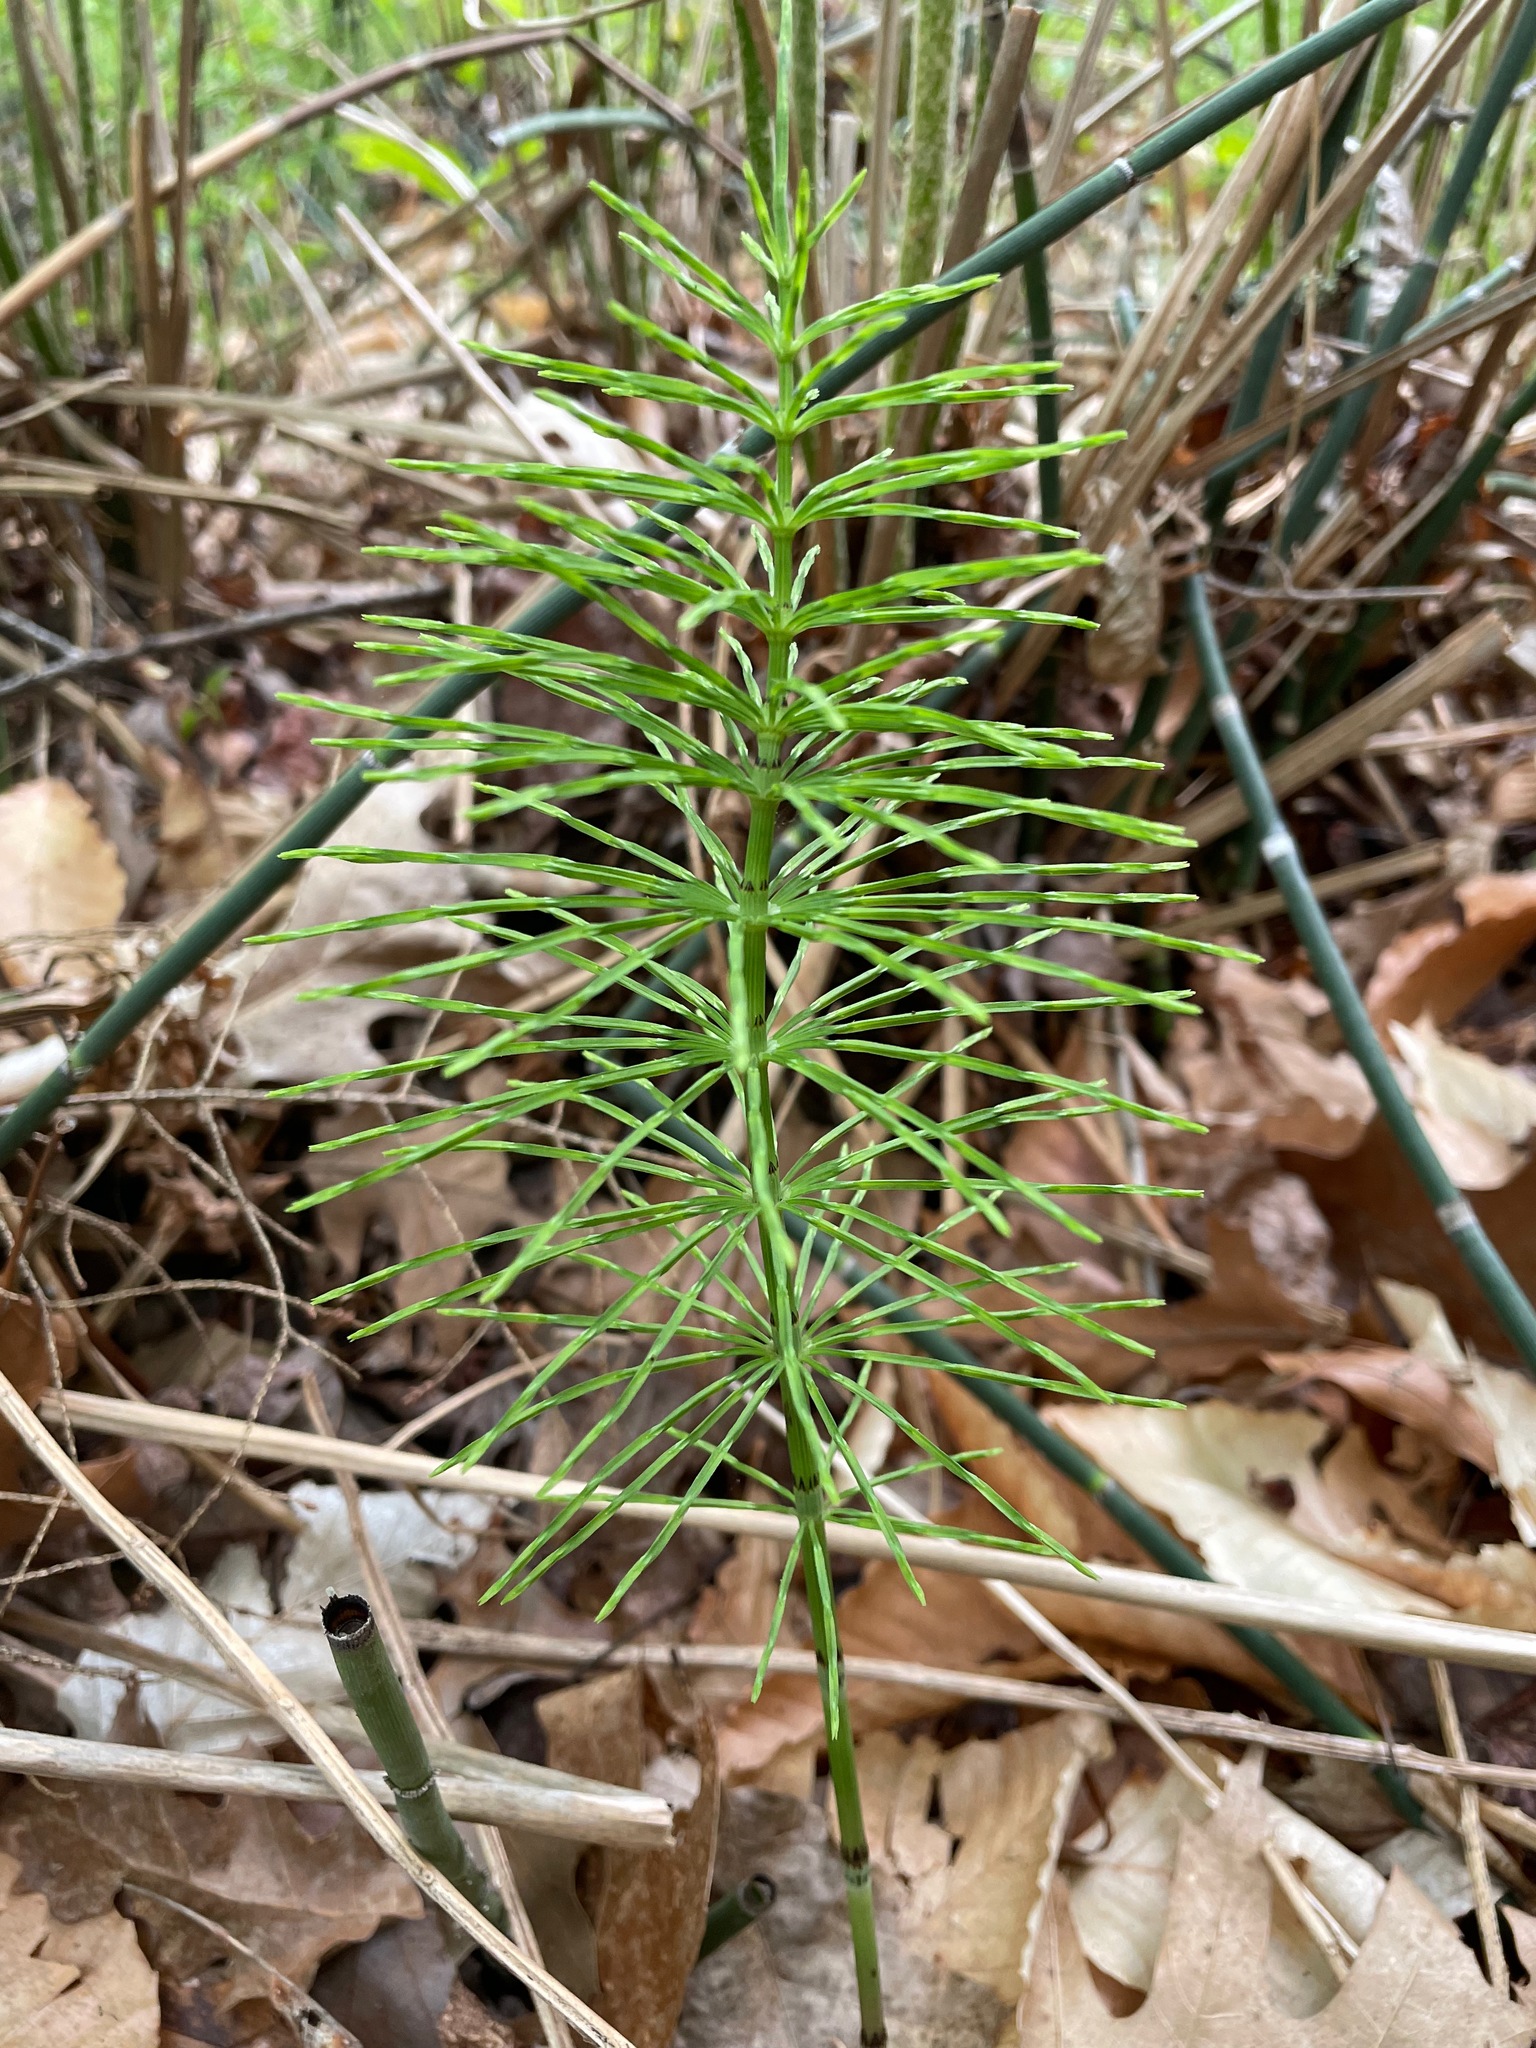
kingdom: Plantae
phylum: Tracheophyta
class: Polypodiopsida
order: Equisetales
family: Equisetaceae
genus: Equisetum
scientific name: Equisetum arvense
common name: Field horsetail
